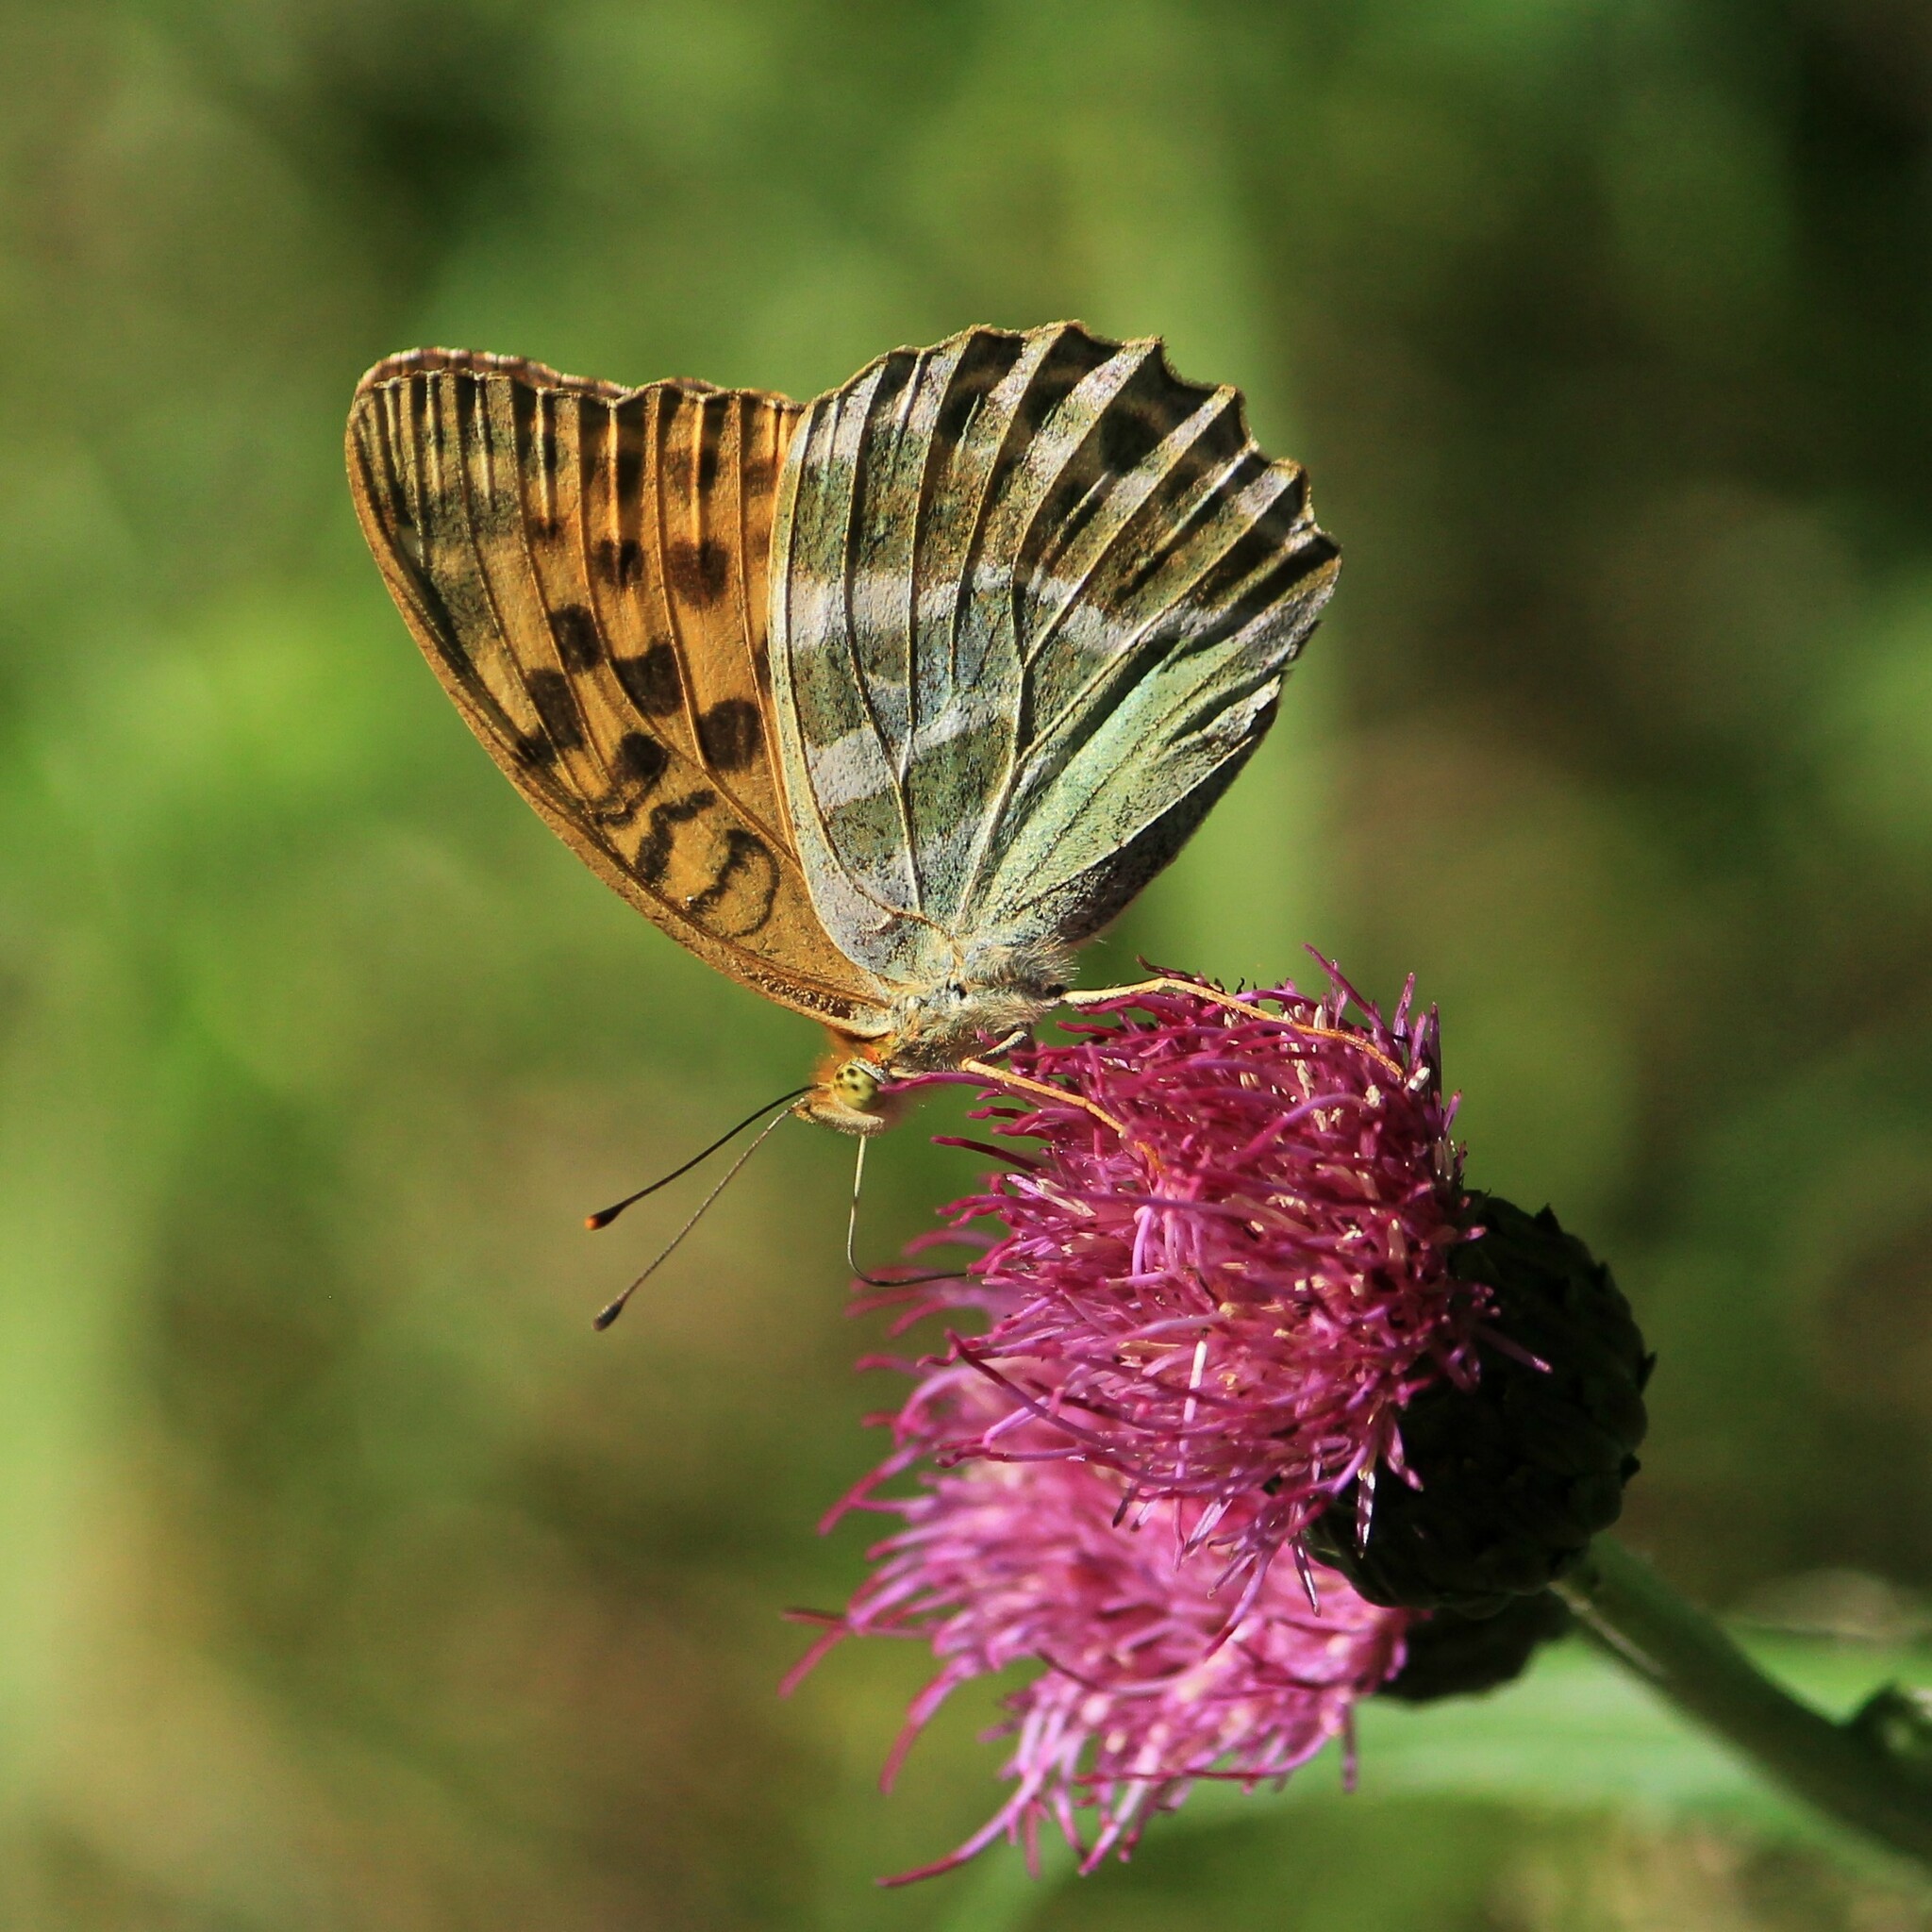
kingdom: Animalia
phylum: Arthropoda
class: Insecta
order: Lepidoptera
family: Nymphalidae
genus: Argynnis
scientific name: Argynnis paphia
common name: Silver-washed fritillary
